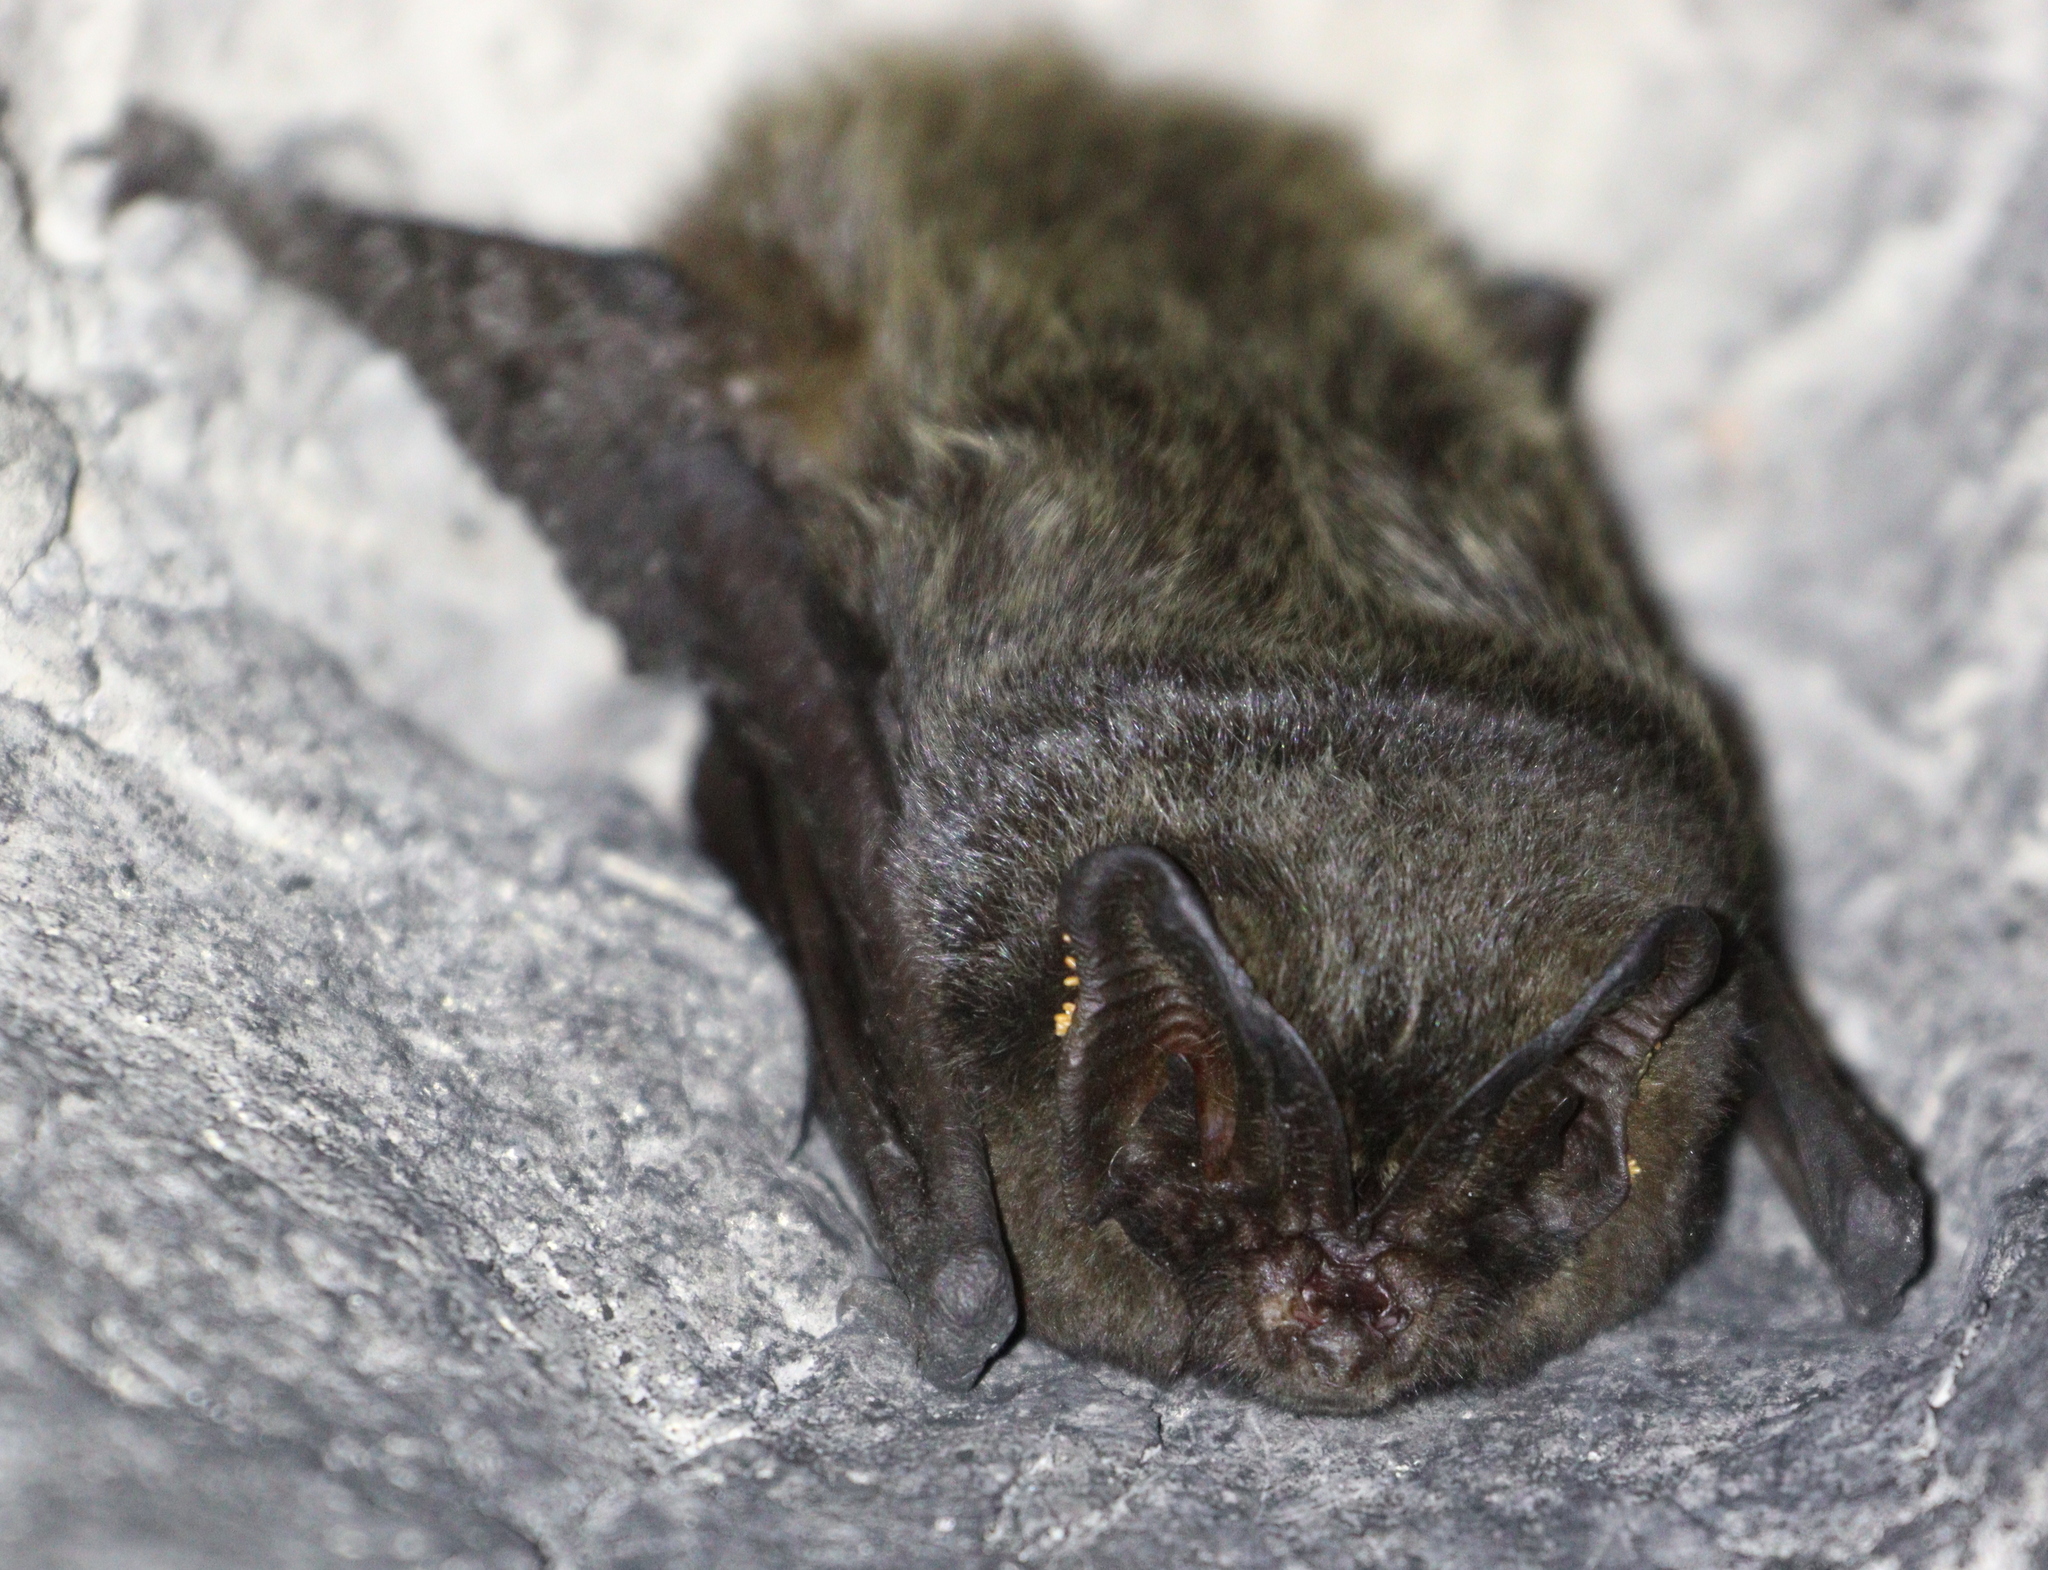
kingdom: Animalia
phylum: Chordata
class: Mammalia
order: Chiroptera
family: Vespertilionidae
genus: Barbastella
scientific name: Barbastella barbastellus
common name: Western barbastelle
